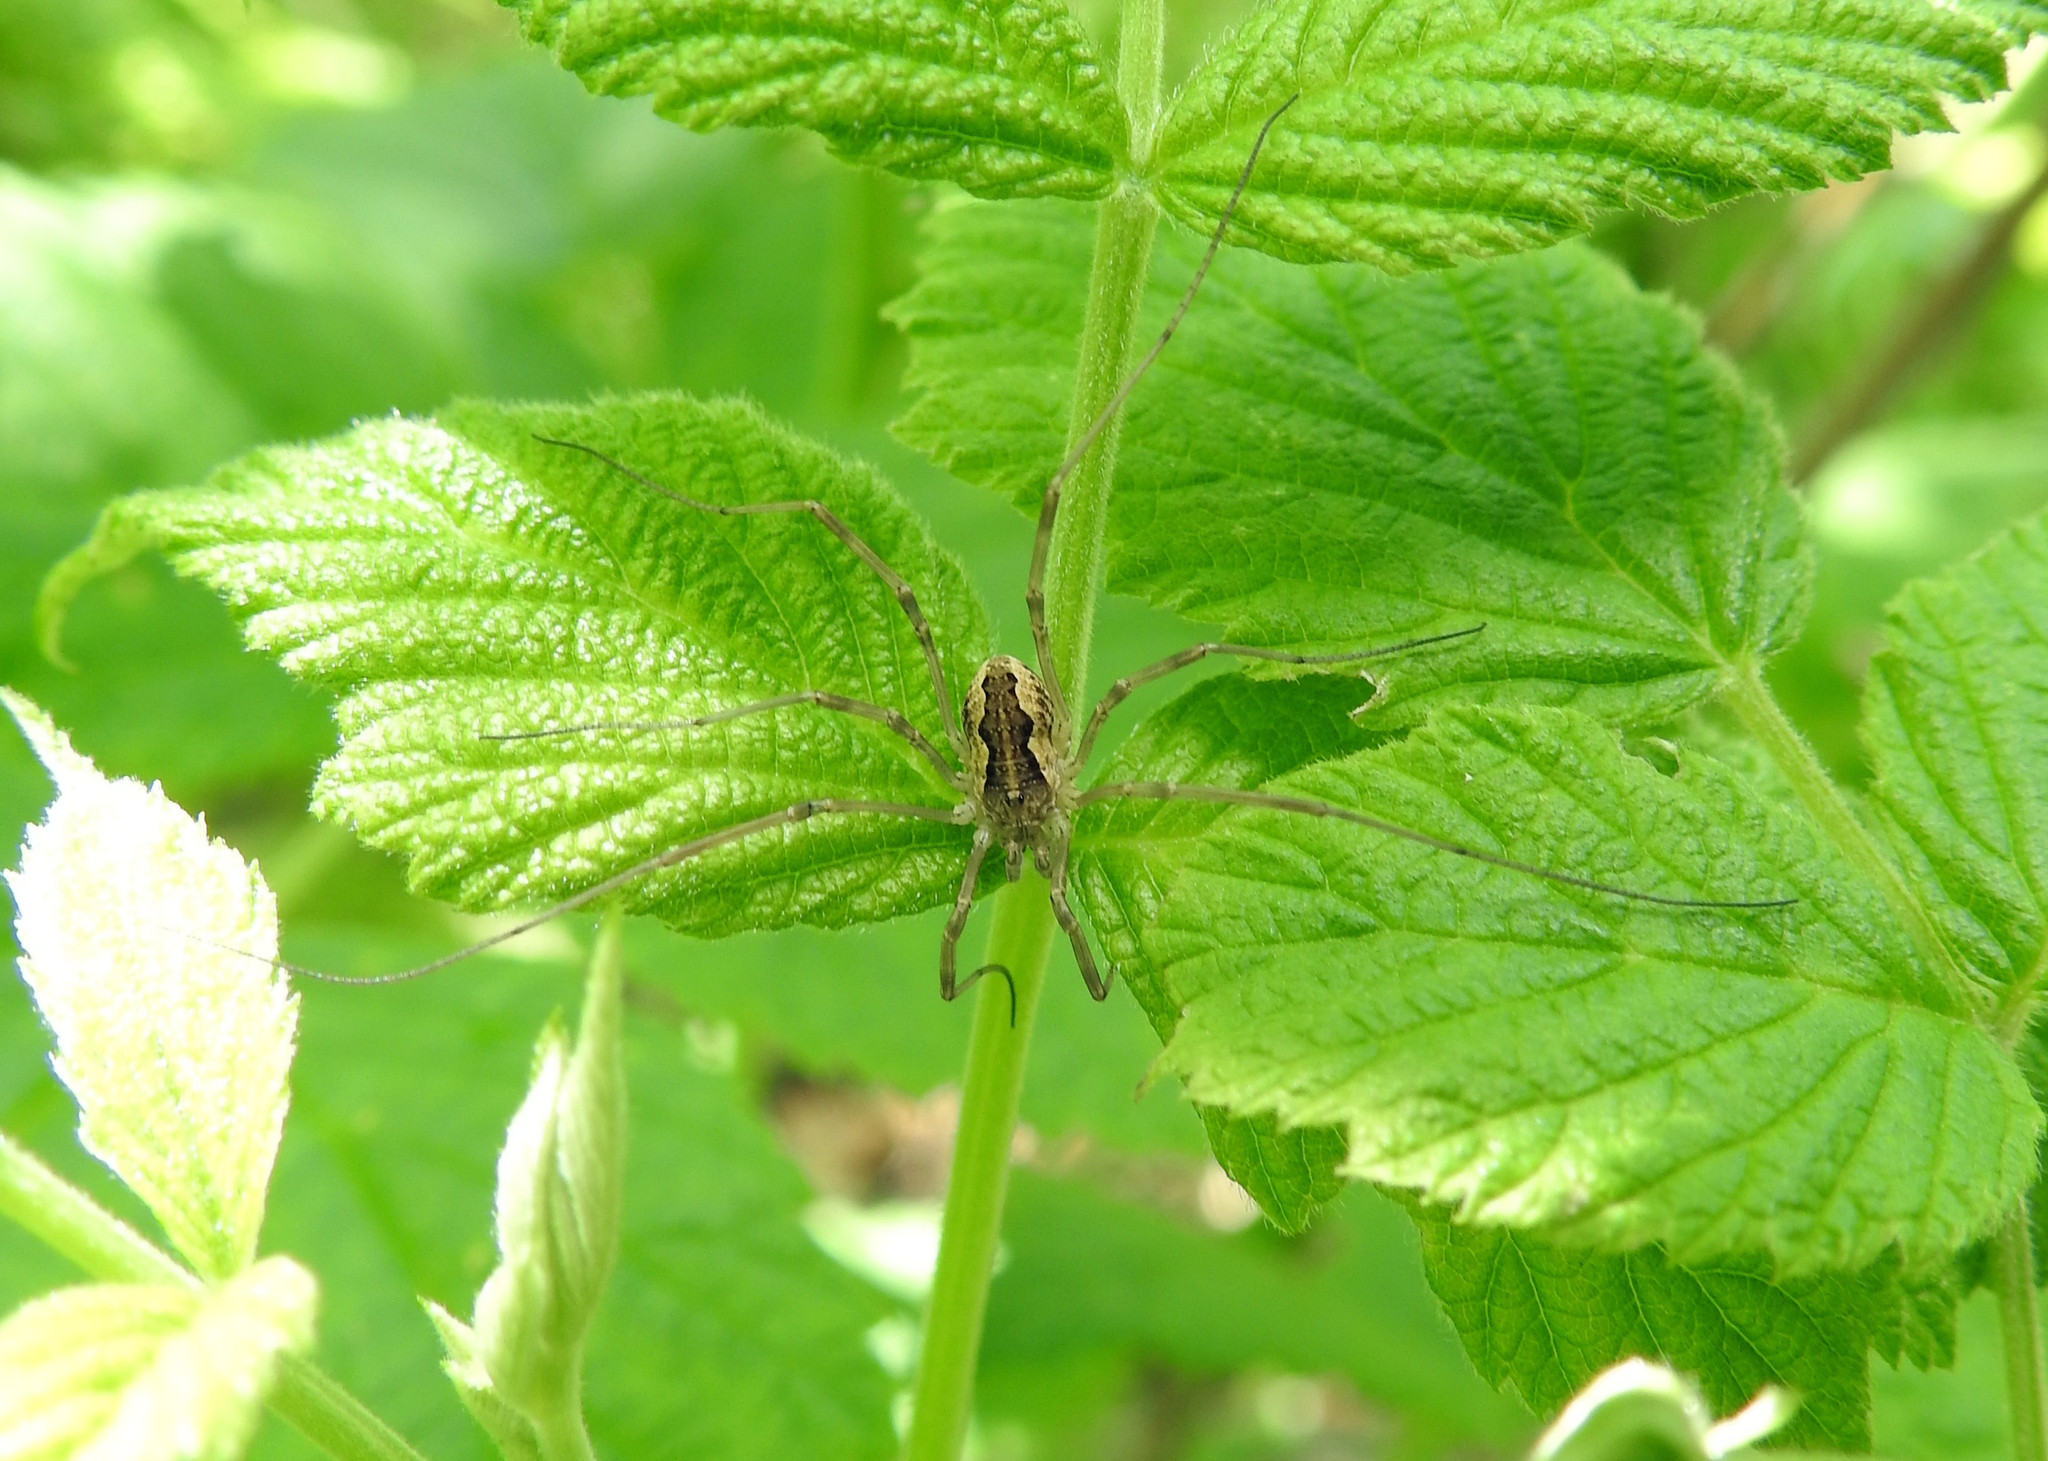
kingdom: Animalia
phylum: Arthropoda
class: Arachnida
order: Opiliones
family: Phalangiidae
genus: Mitopus
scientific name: Mitopus morio
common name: Saddleback harvestman
